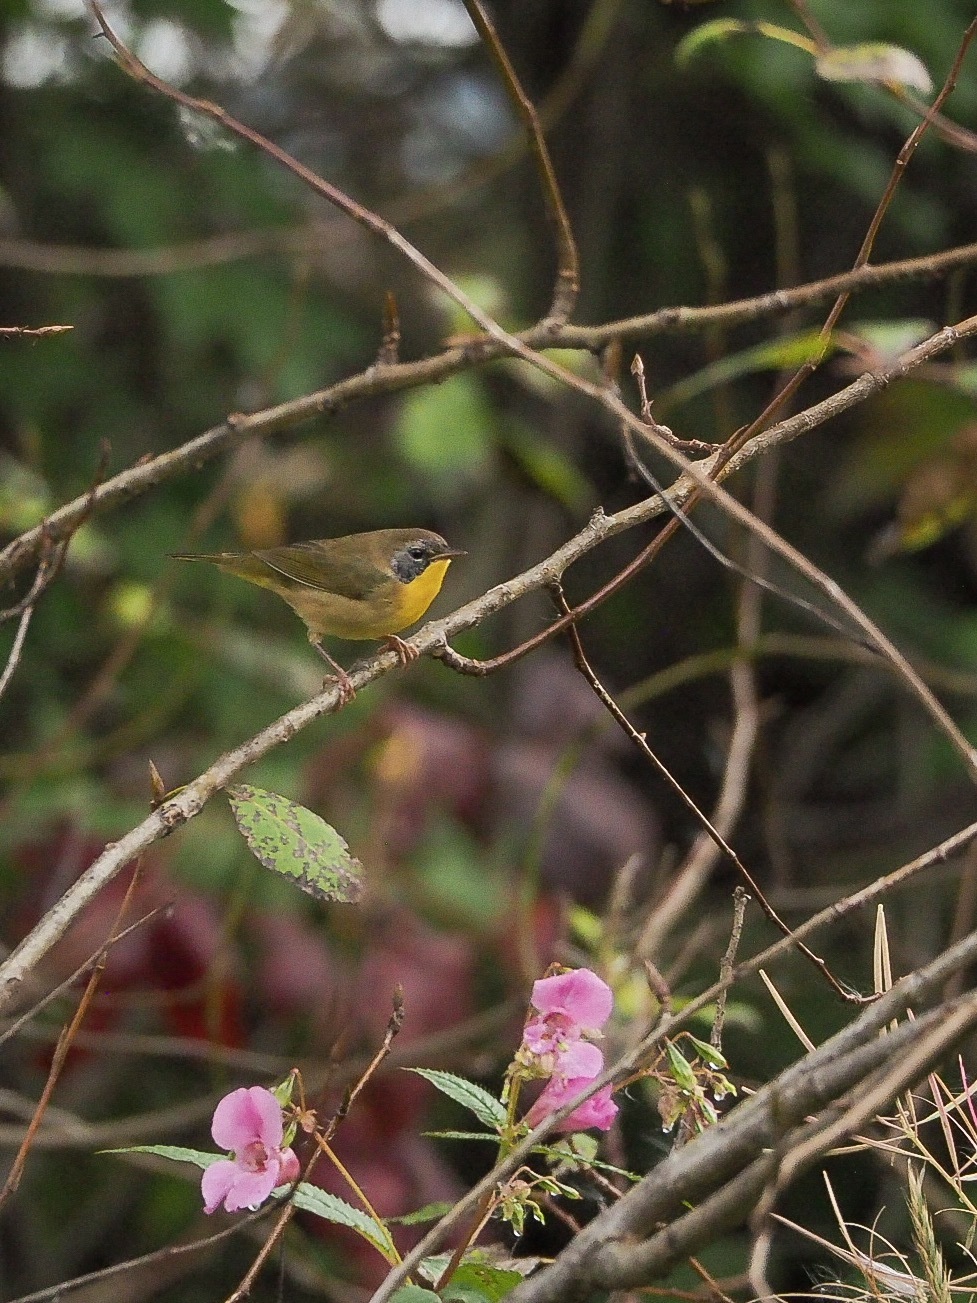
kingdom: Animalia
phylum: Chordata
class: Aves
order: Passeriformes
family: Parulidae
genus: Geothlypis
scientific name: Geothlypis trichas
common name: Common yellowthroat
